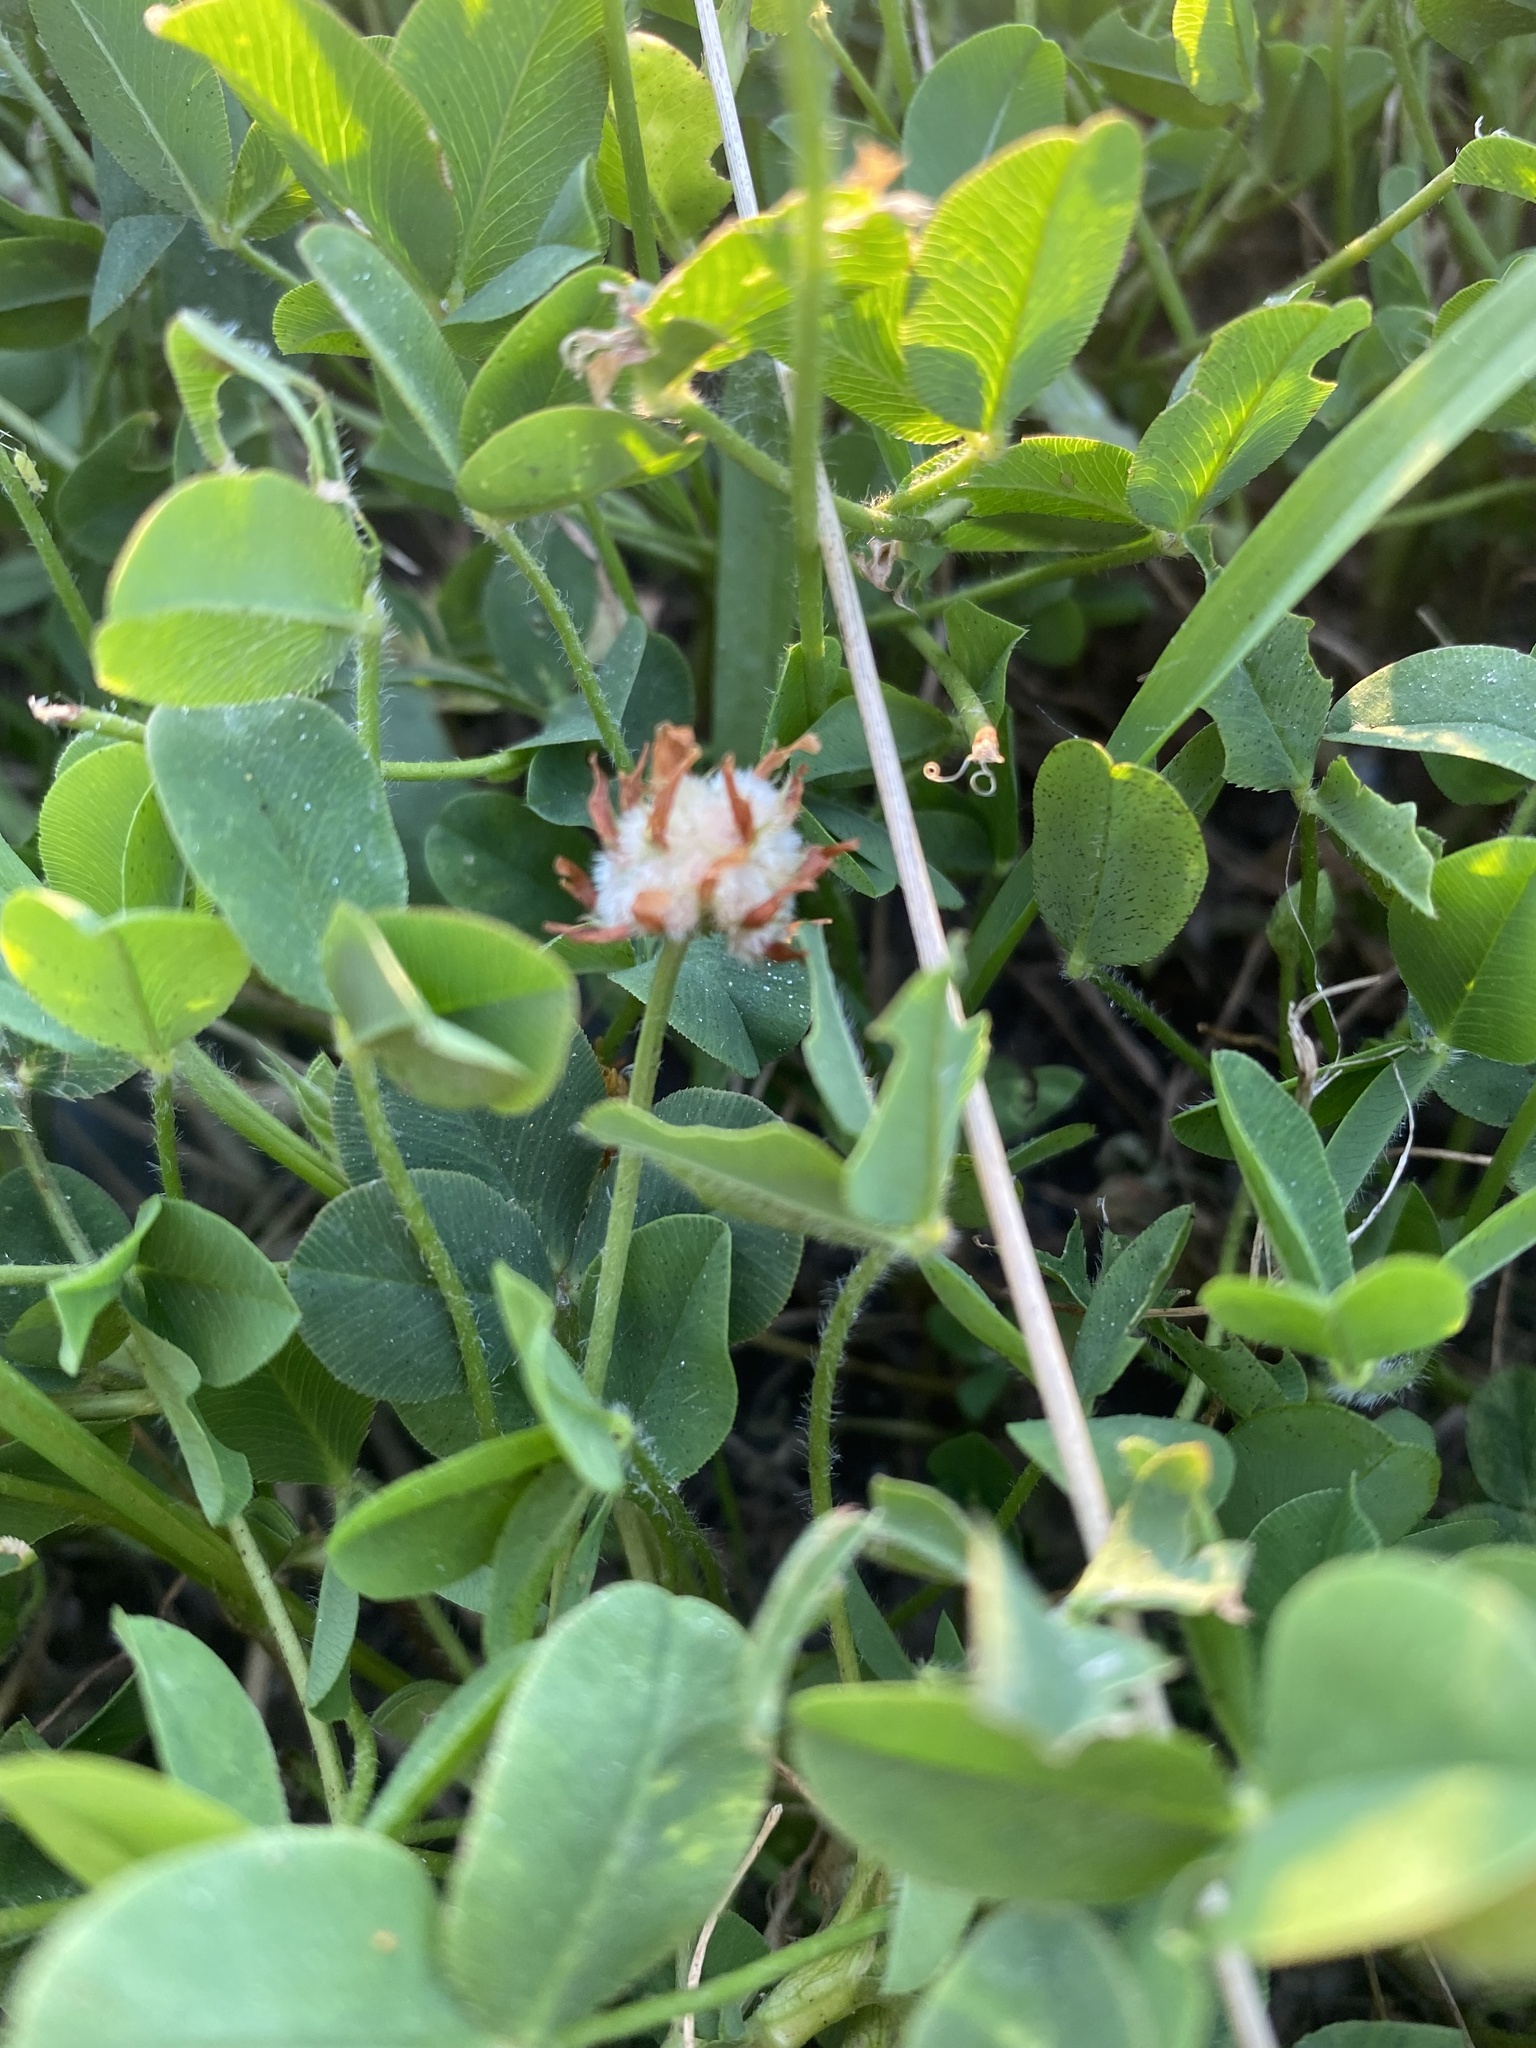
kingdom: Plantae
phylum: Tracheophyta
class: Magnoliopsida
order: Fabales
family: Fabaceae
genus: Trifolium
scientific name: Trifolium fragiferum
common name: Strawberry clover
